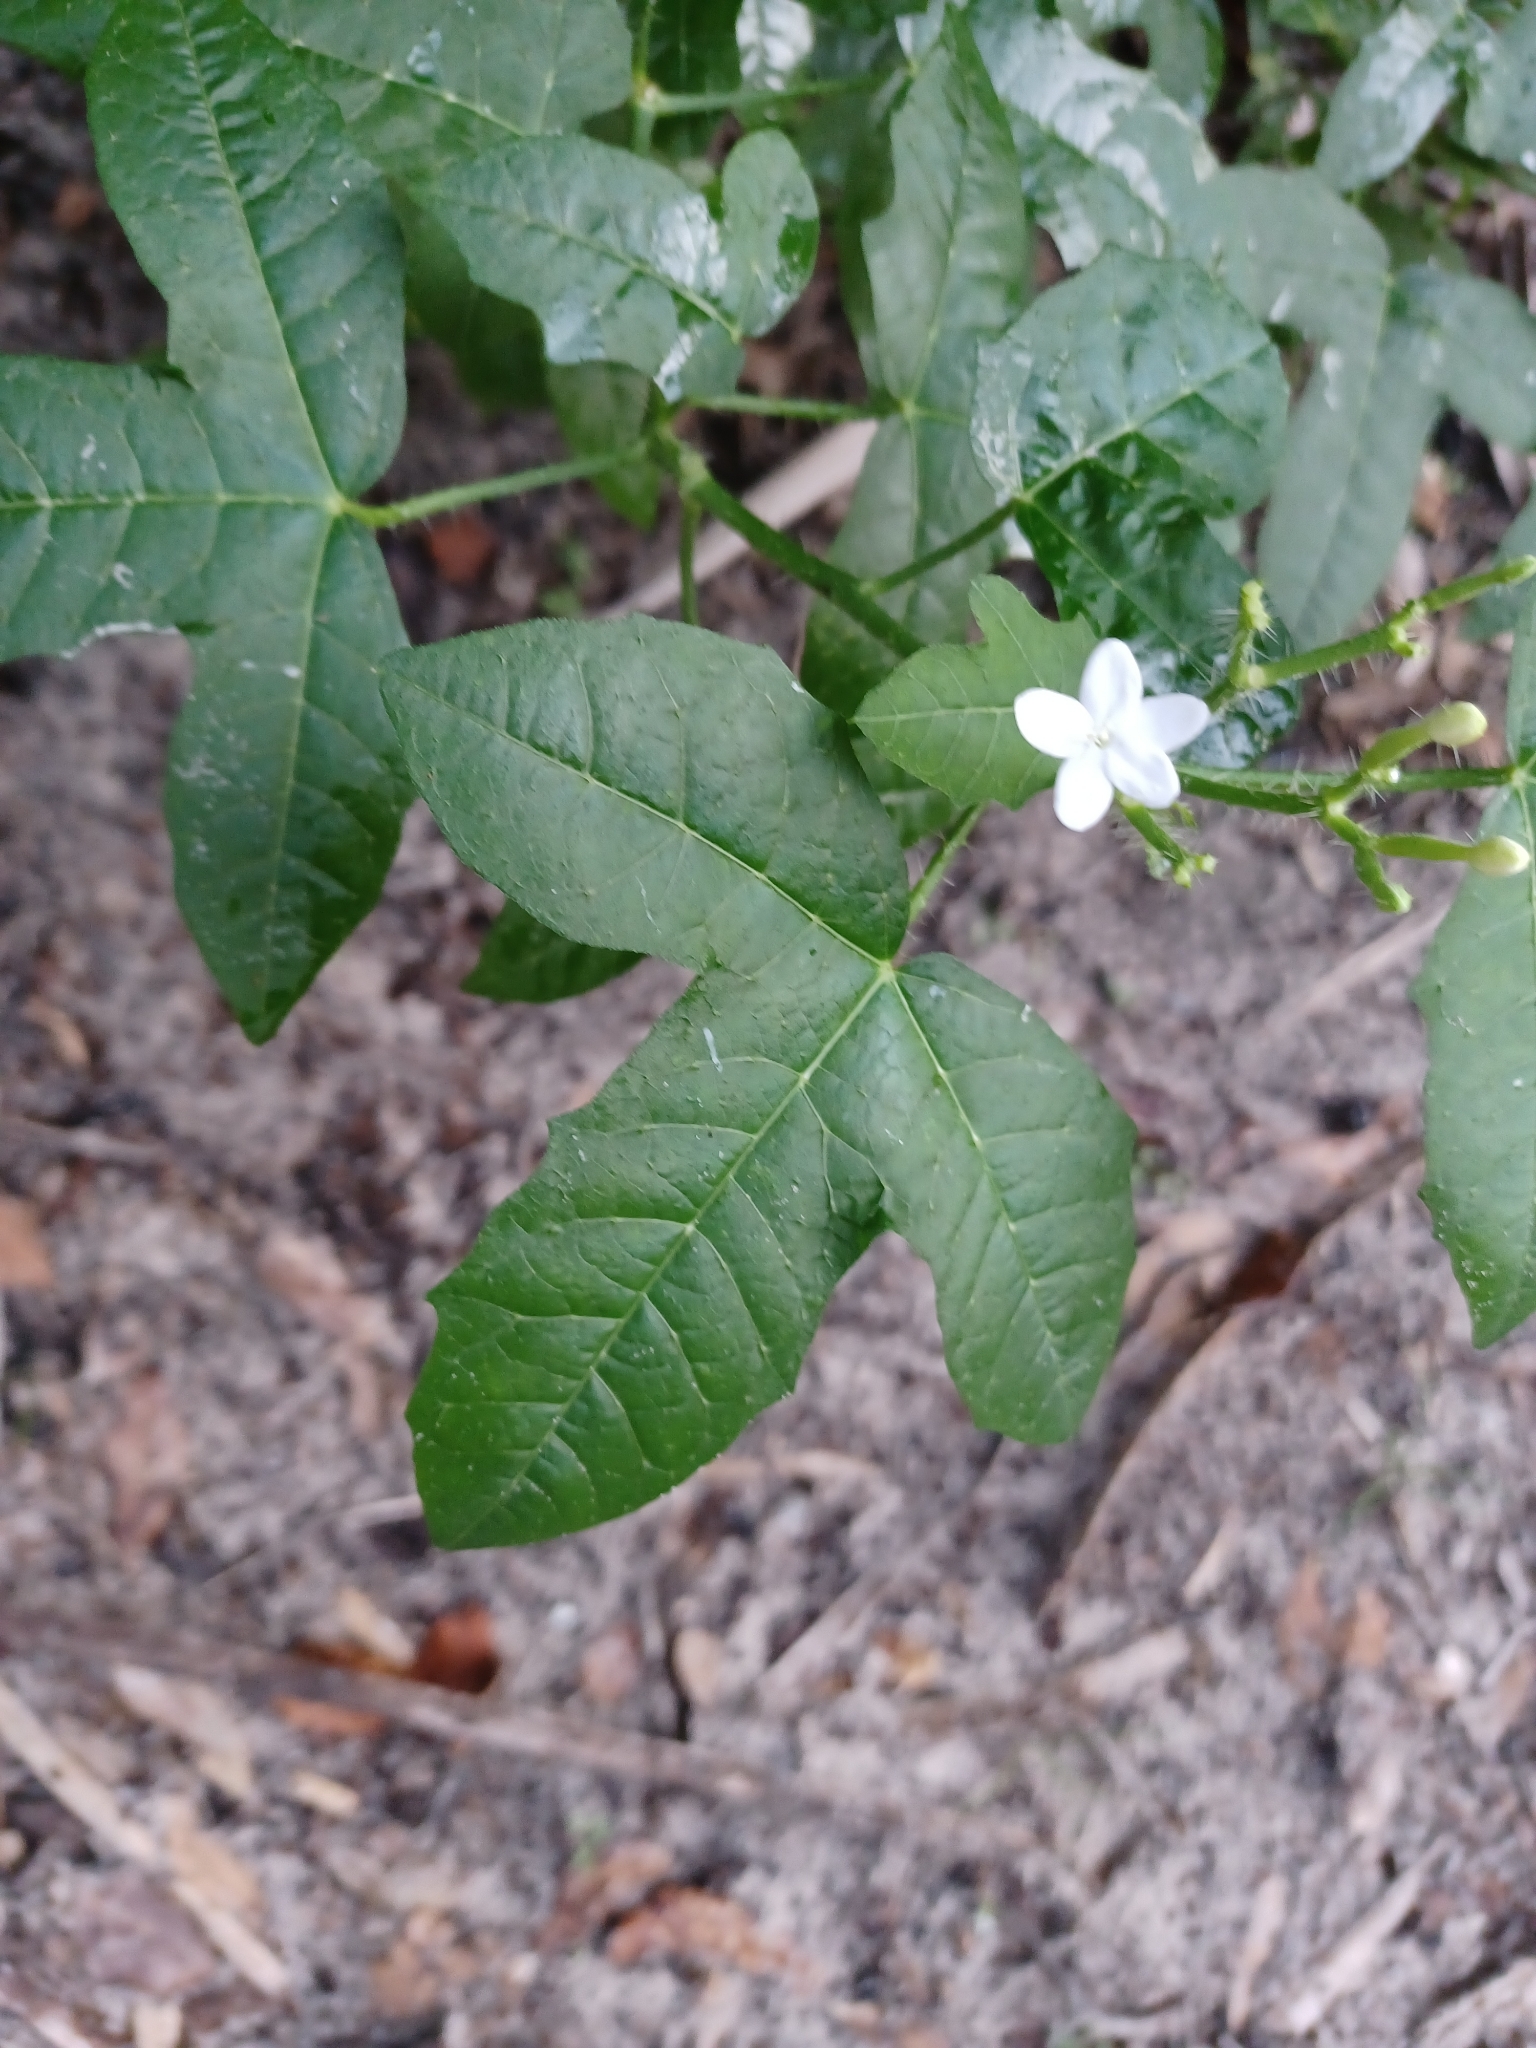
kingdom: Plantae
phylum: Tracheophyta
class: Magnoliopsida
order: Malpighiales
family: Euphorbiaceae
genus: Cnidoscolus
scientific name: Cnidoscolus stimulosus
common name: Bull-nettle
